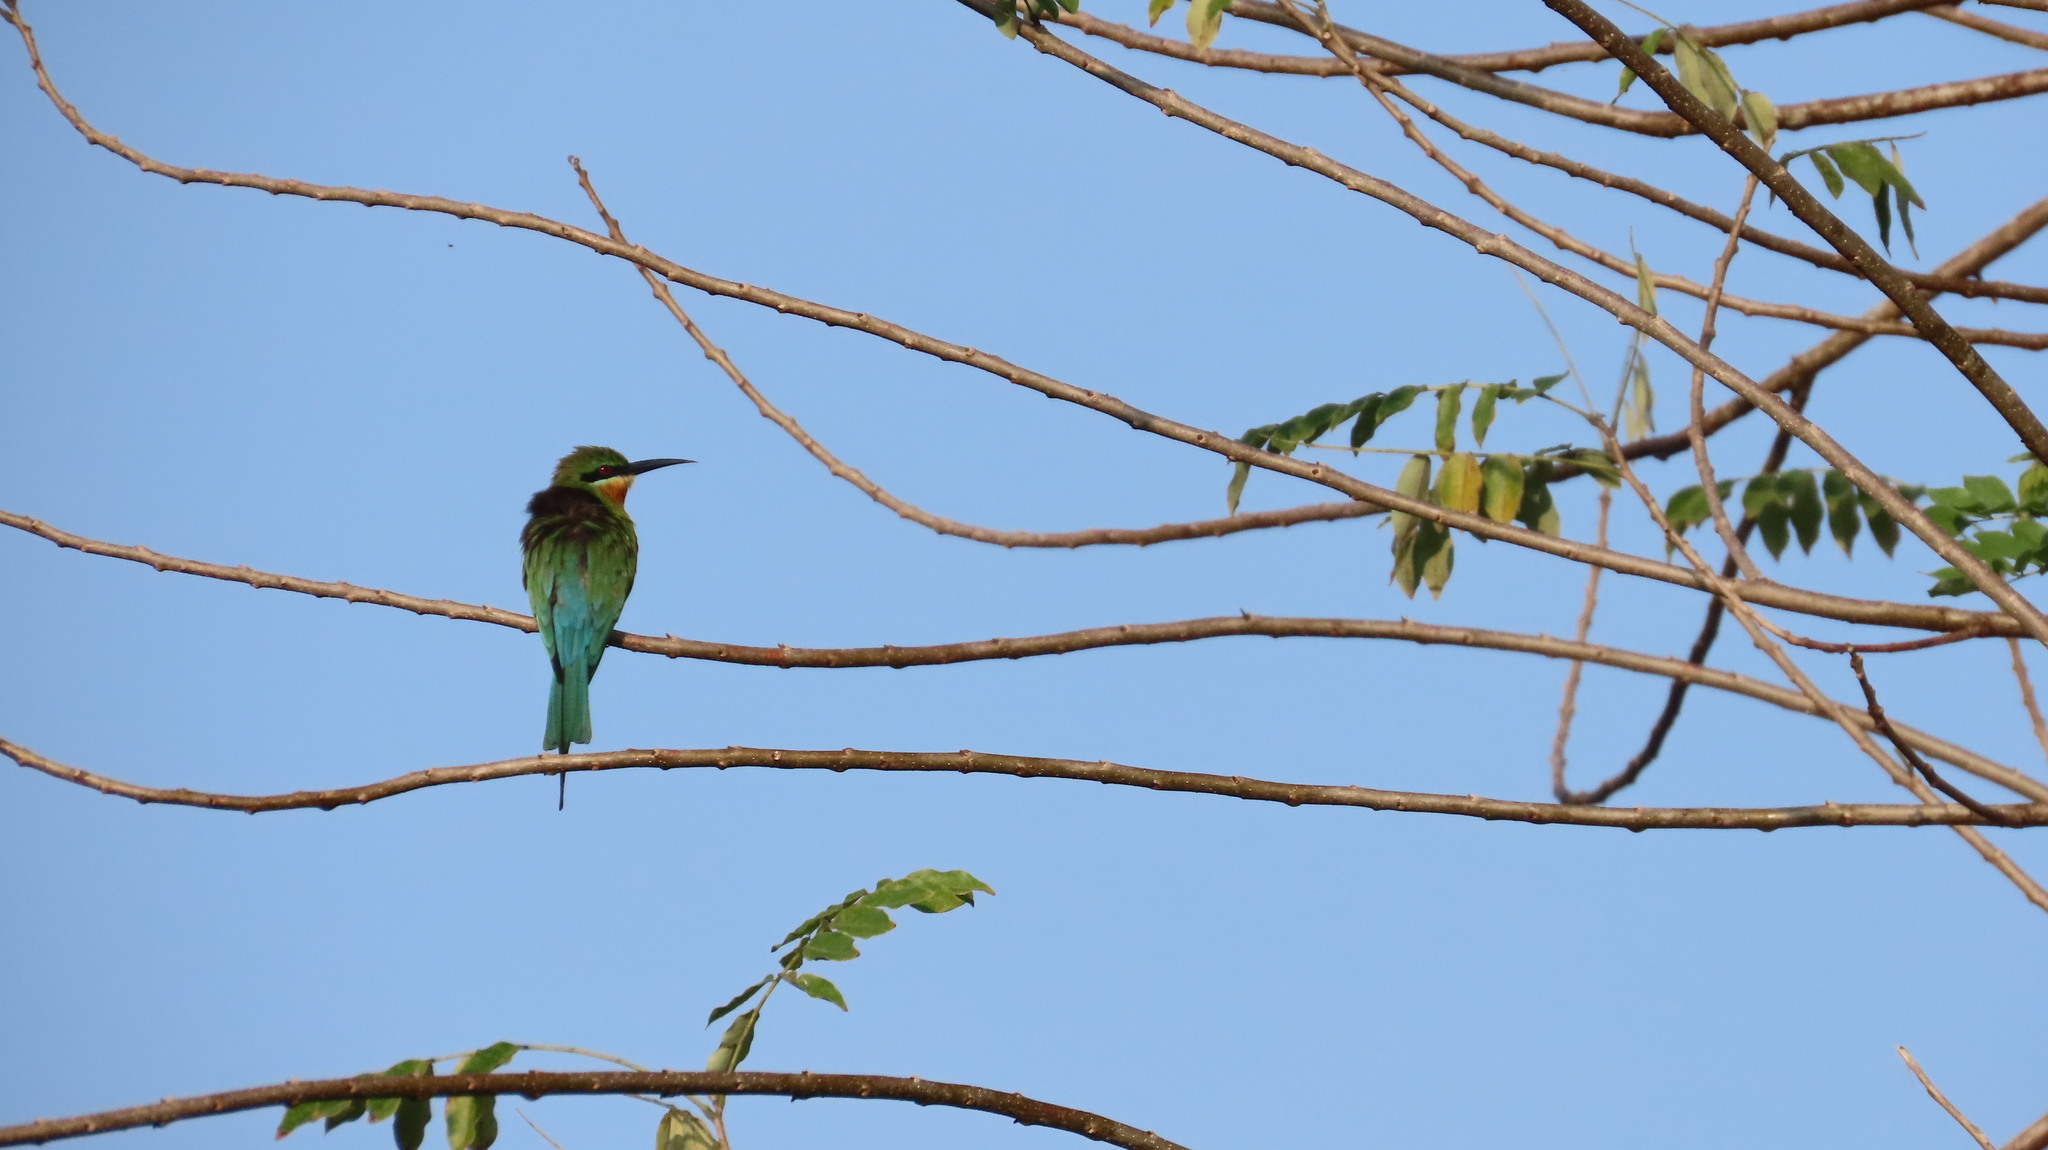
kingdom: Animalia
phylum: Chordata
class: Aves
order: Coraciiformes
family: Meropidae
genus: Merops
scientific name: Merops philippinus
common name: Blue-tailed bee-eater
